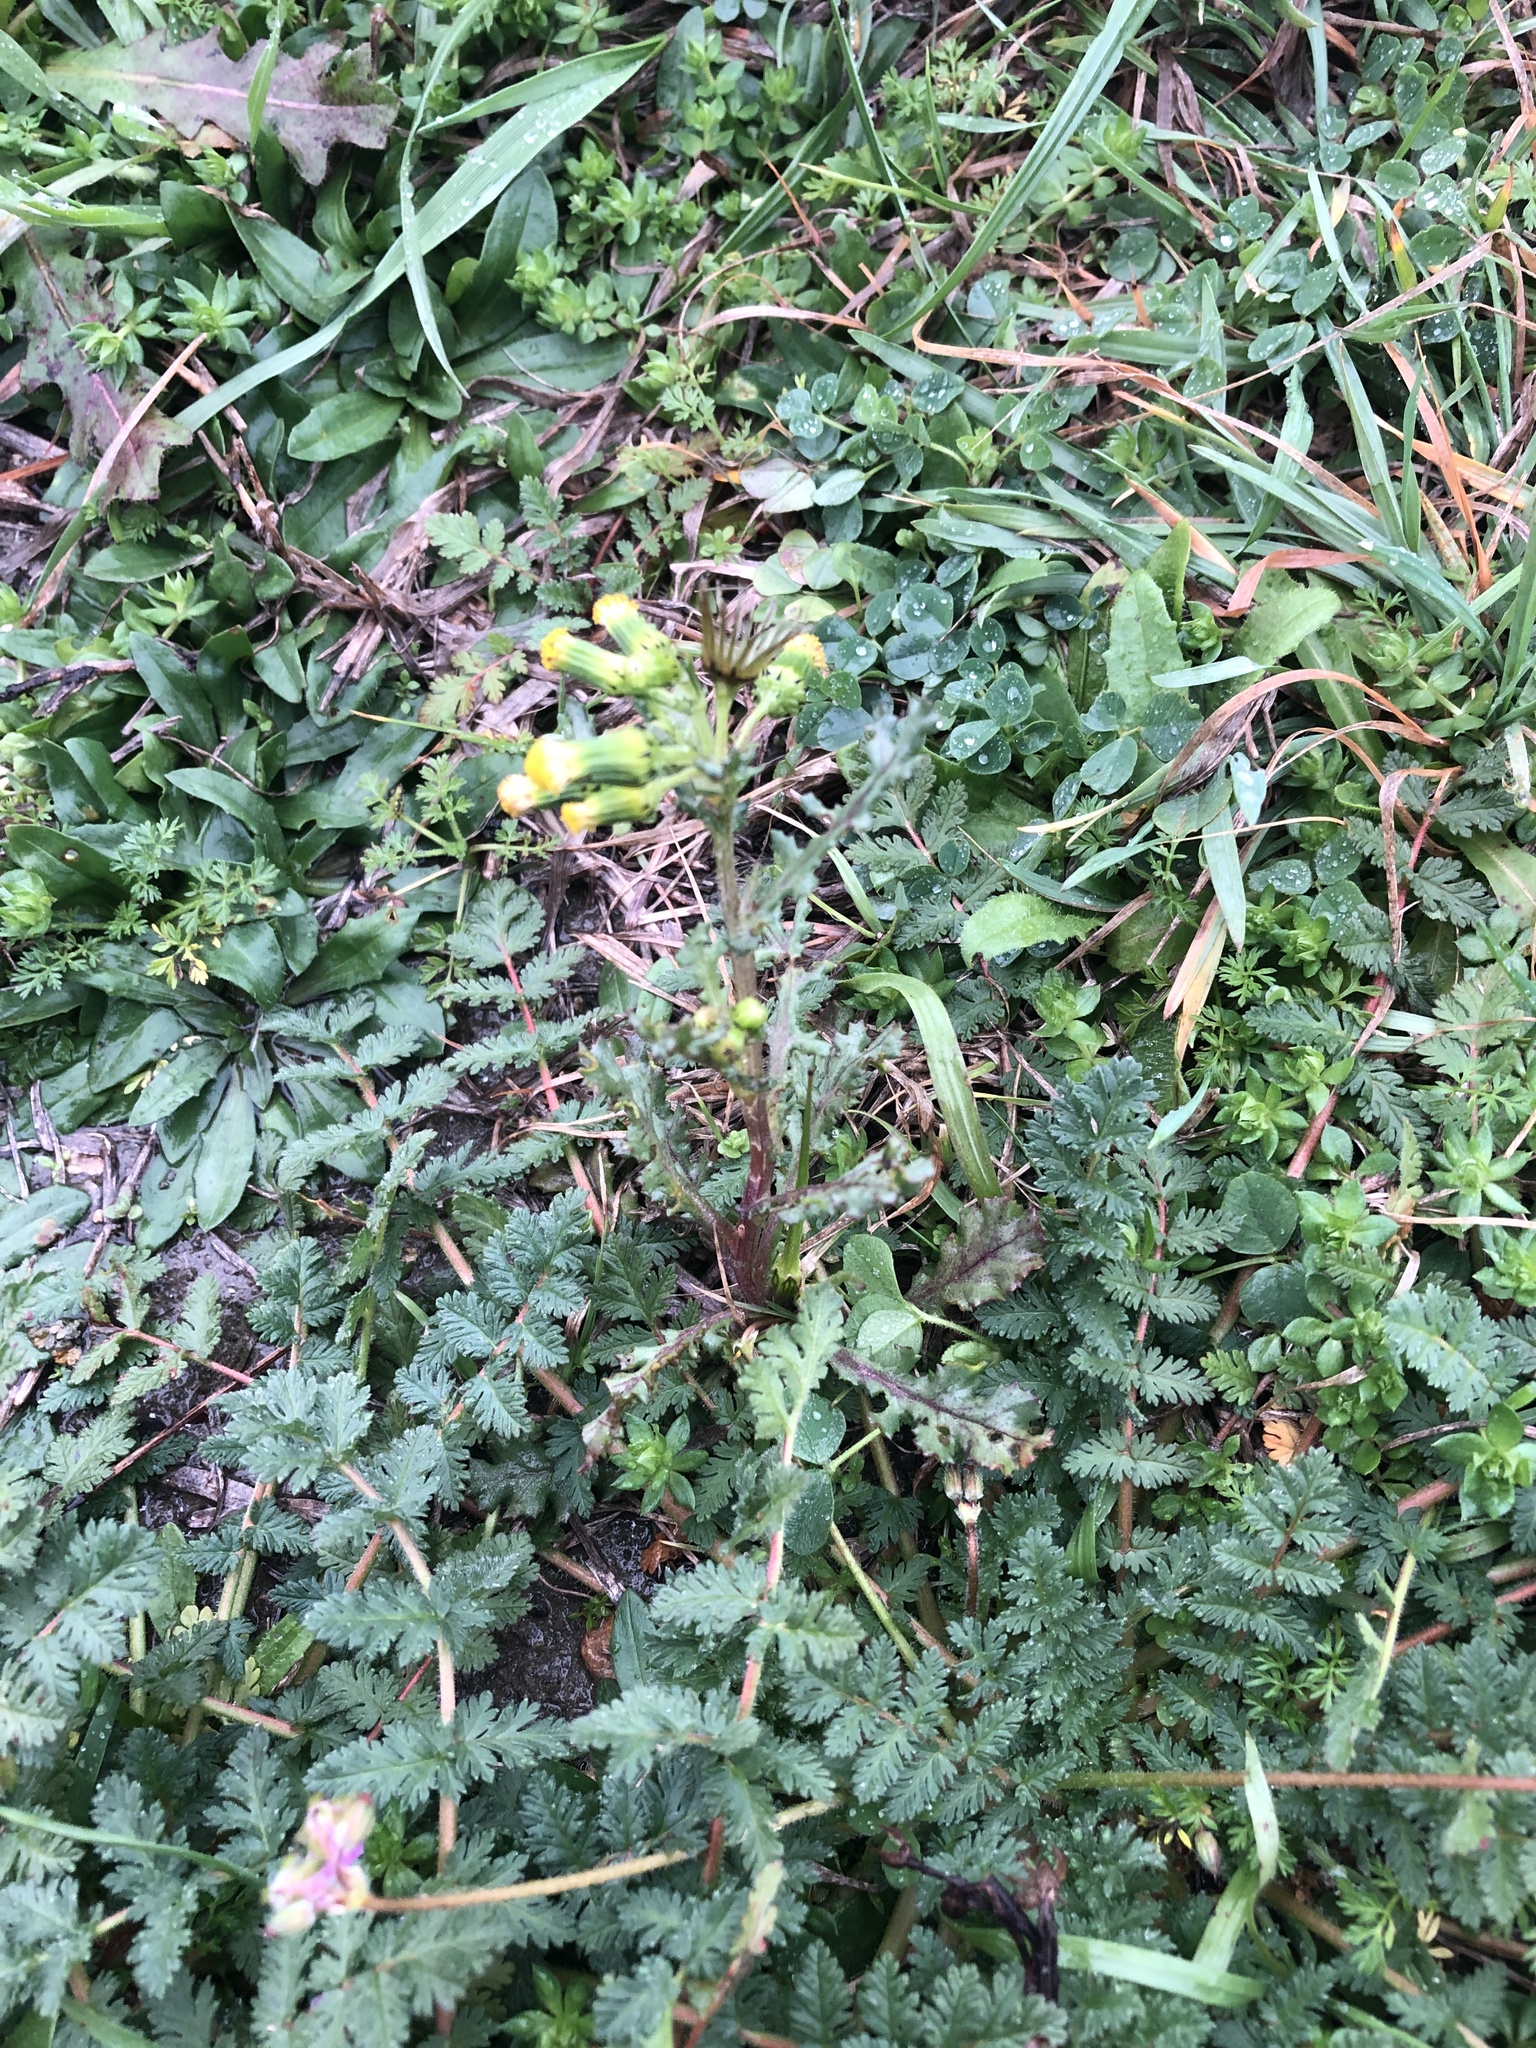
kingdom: Plantae
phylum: Tracheophyta
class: Magnoliopsida
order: Asterales
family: Asteraceae
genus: Senecio
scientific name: Senecio vulgaris
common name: Old-man-in-the-spring
